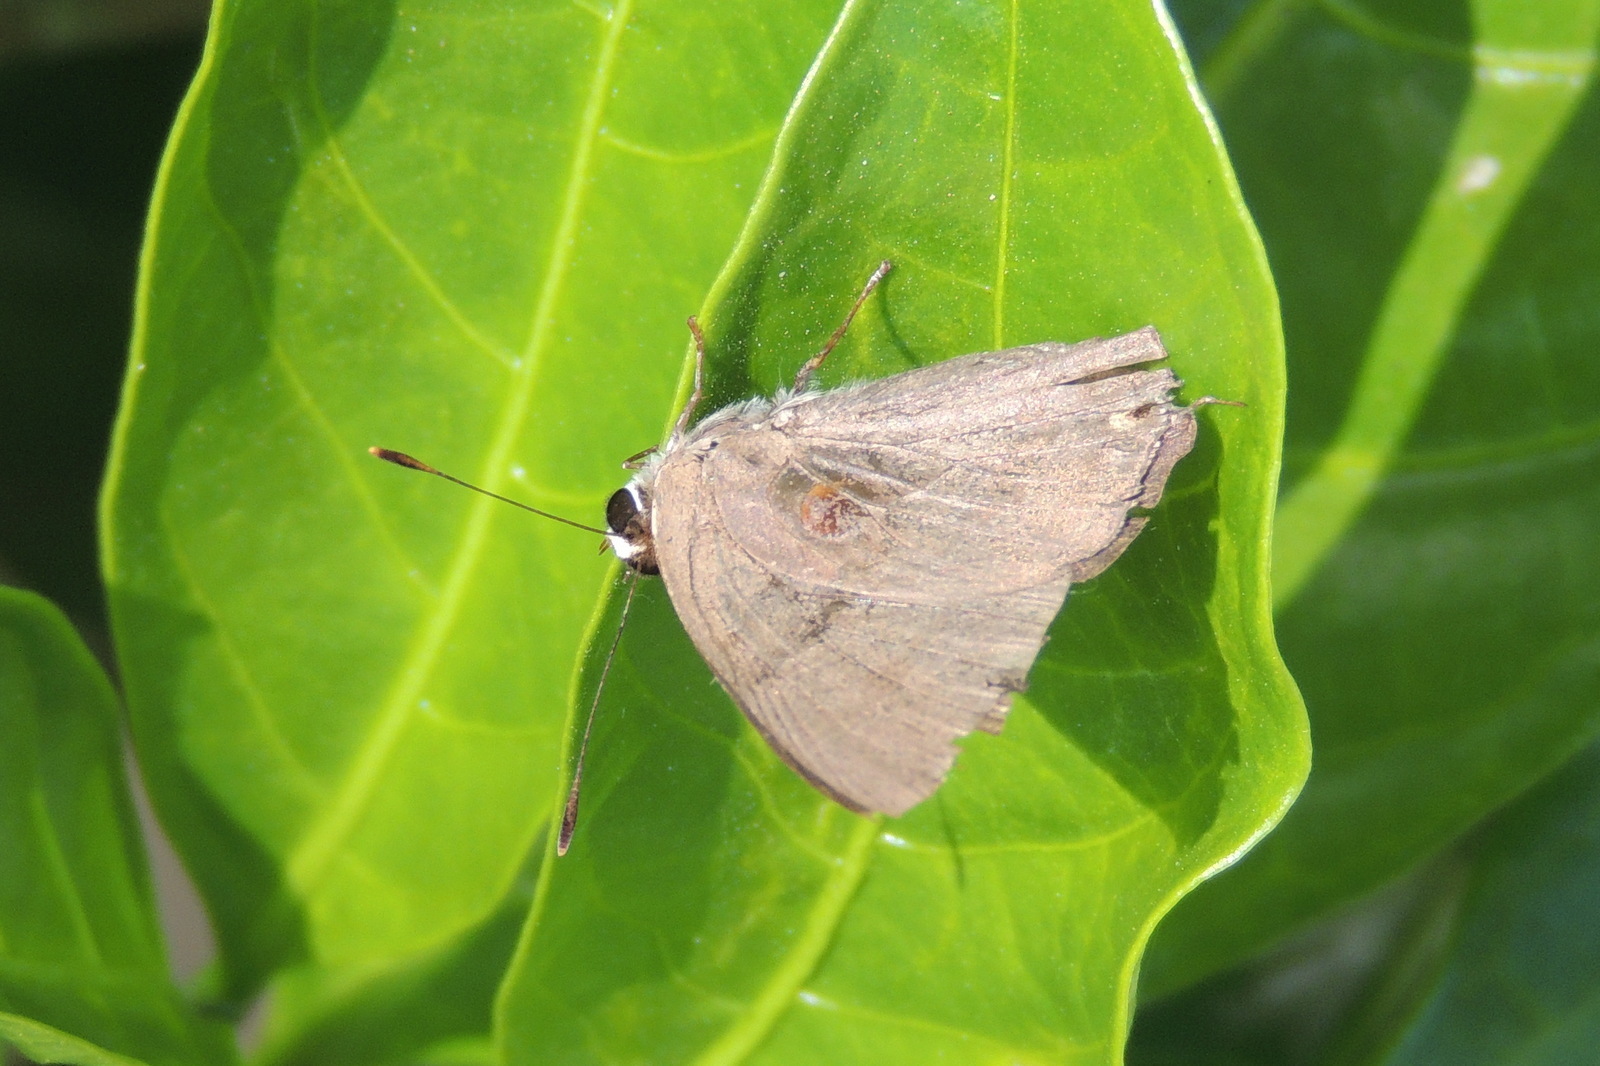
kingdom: Animalia
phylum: Arthropoda
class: Insecta
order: Lepidoptera
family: Lycaenidae
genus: Rapala
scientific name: Rapala manea
